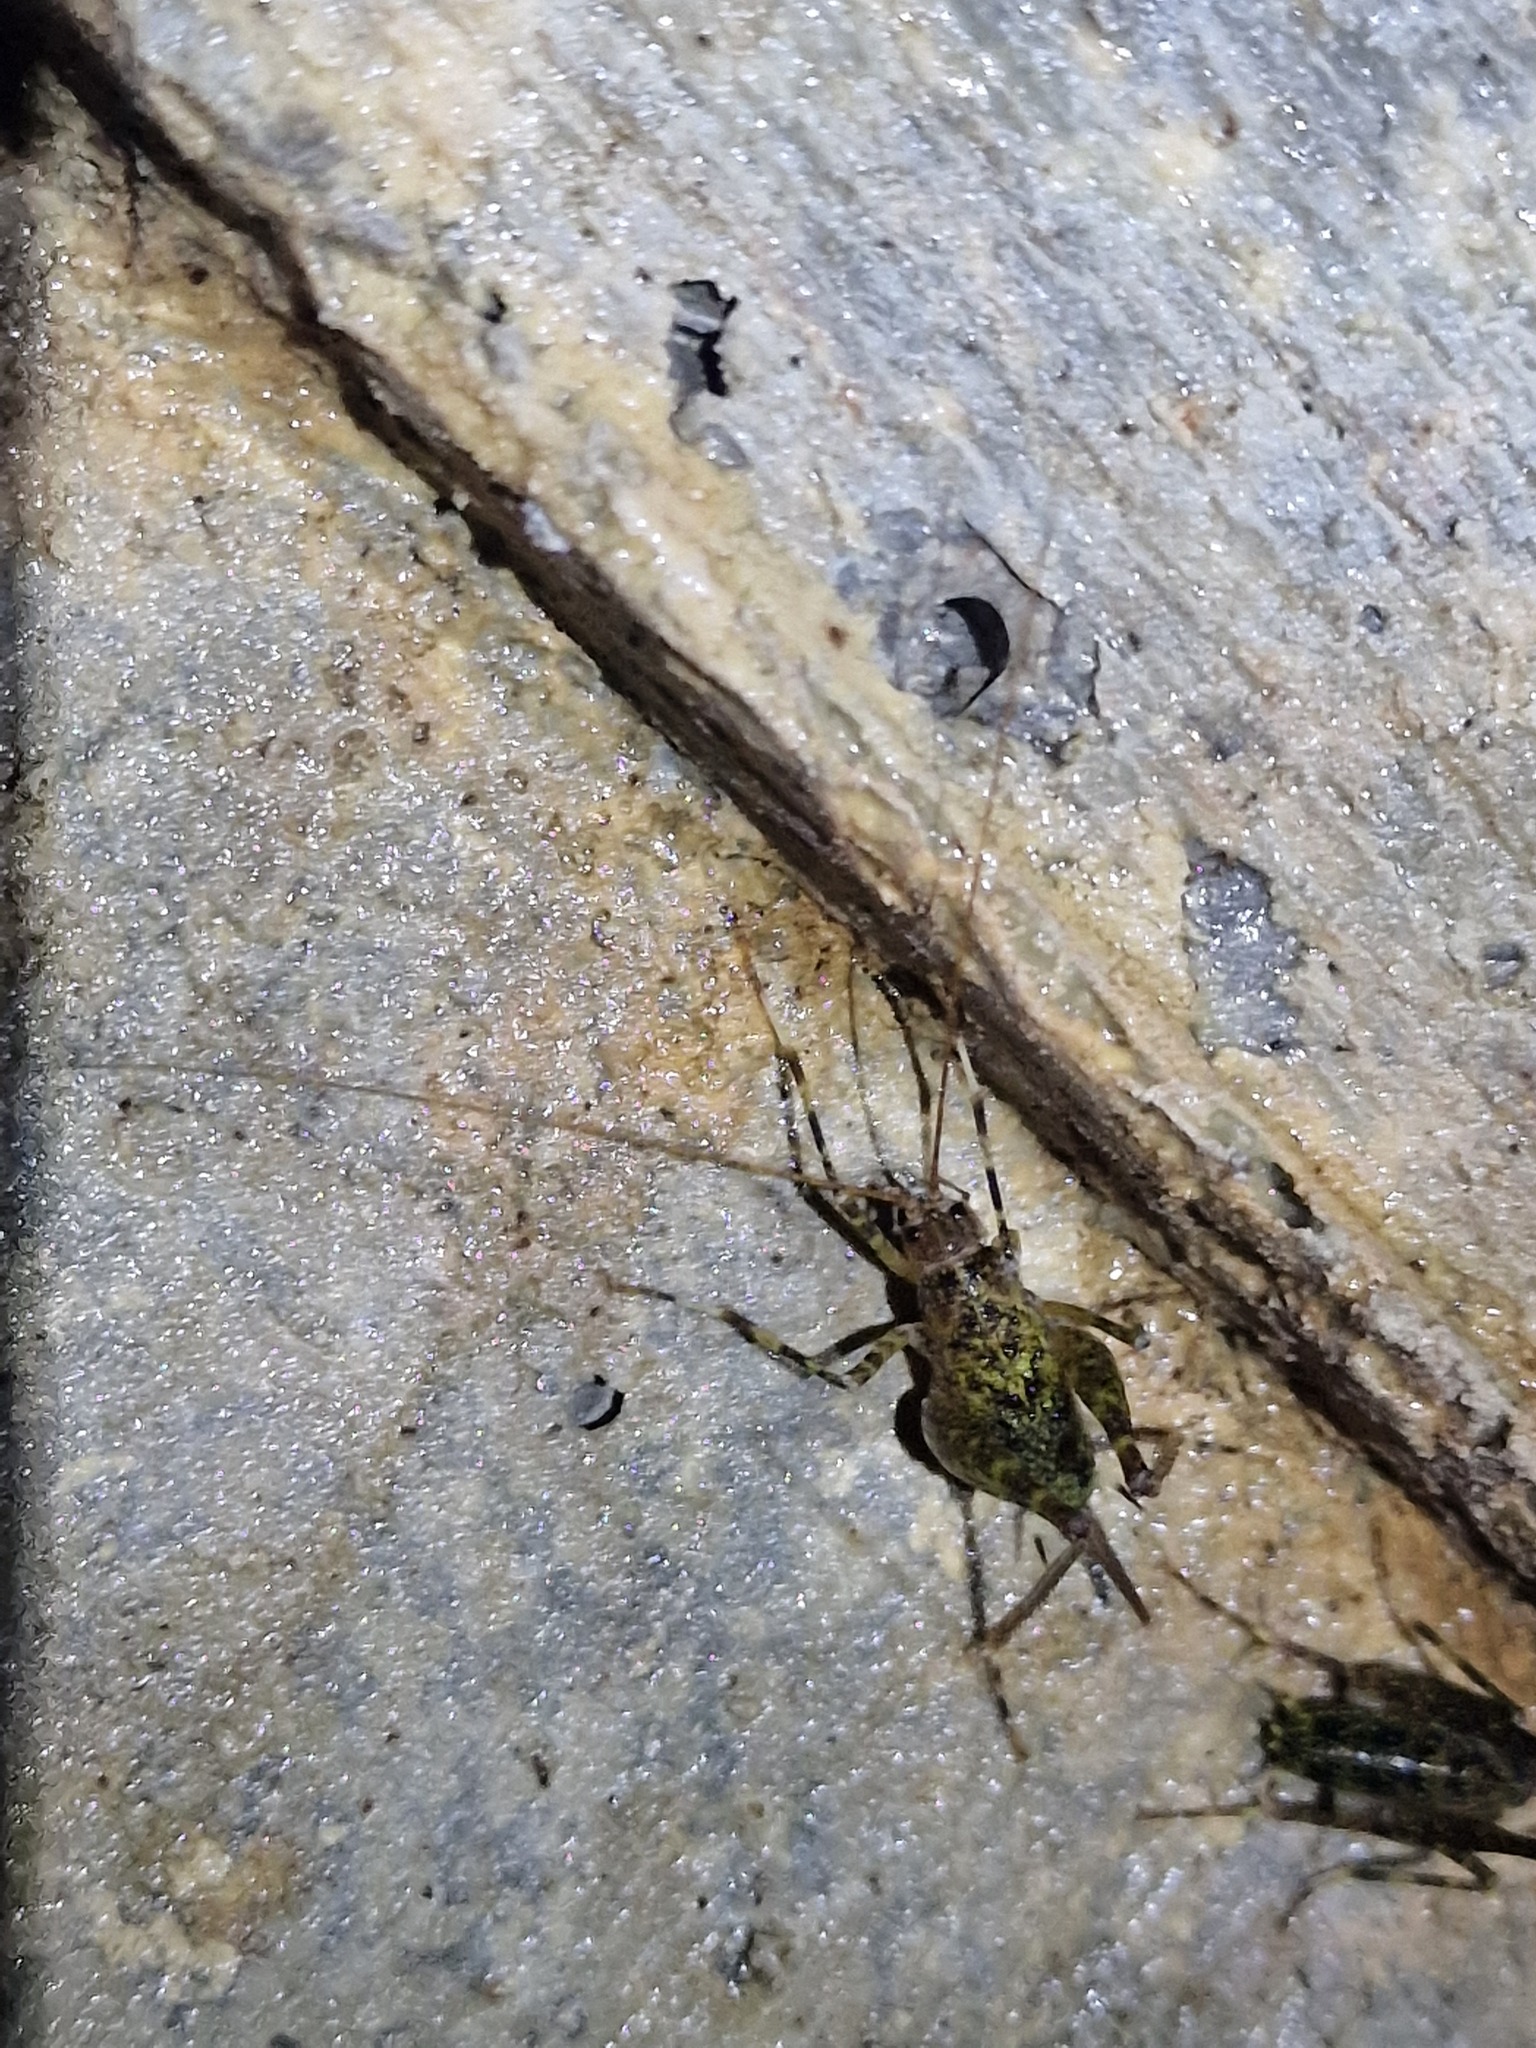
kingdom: Animalia
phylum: Arthropoda
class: Insecta
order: Orthoptera
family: Rhaphidophoridae
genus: Troglophilus
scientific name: Troglophilus neglectus
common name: Neglected cave-cricket
